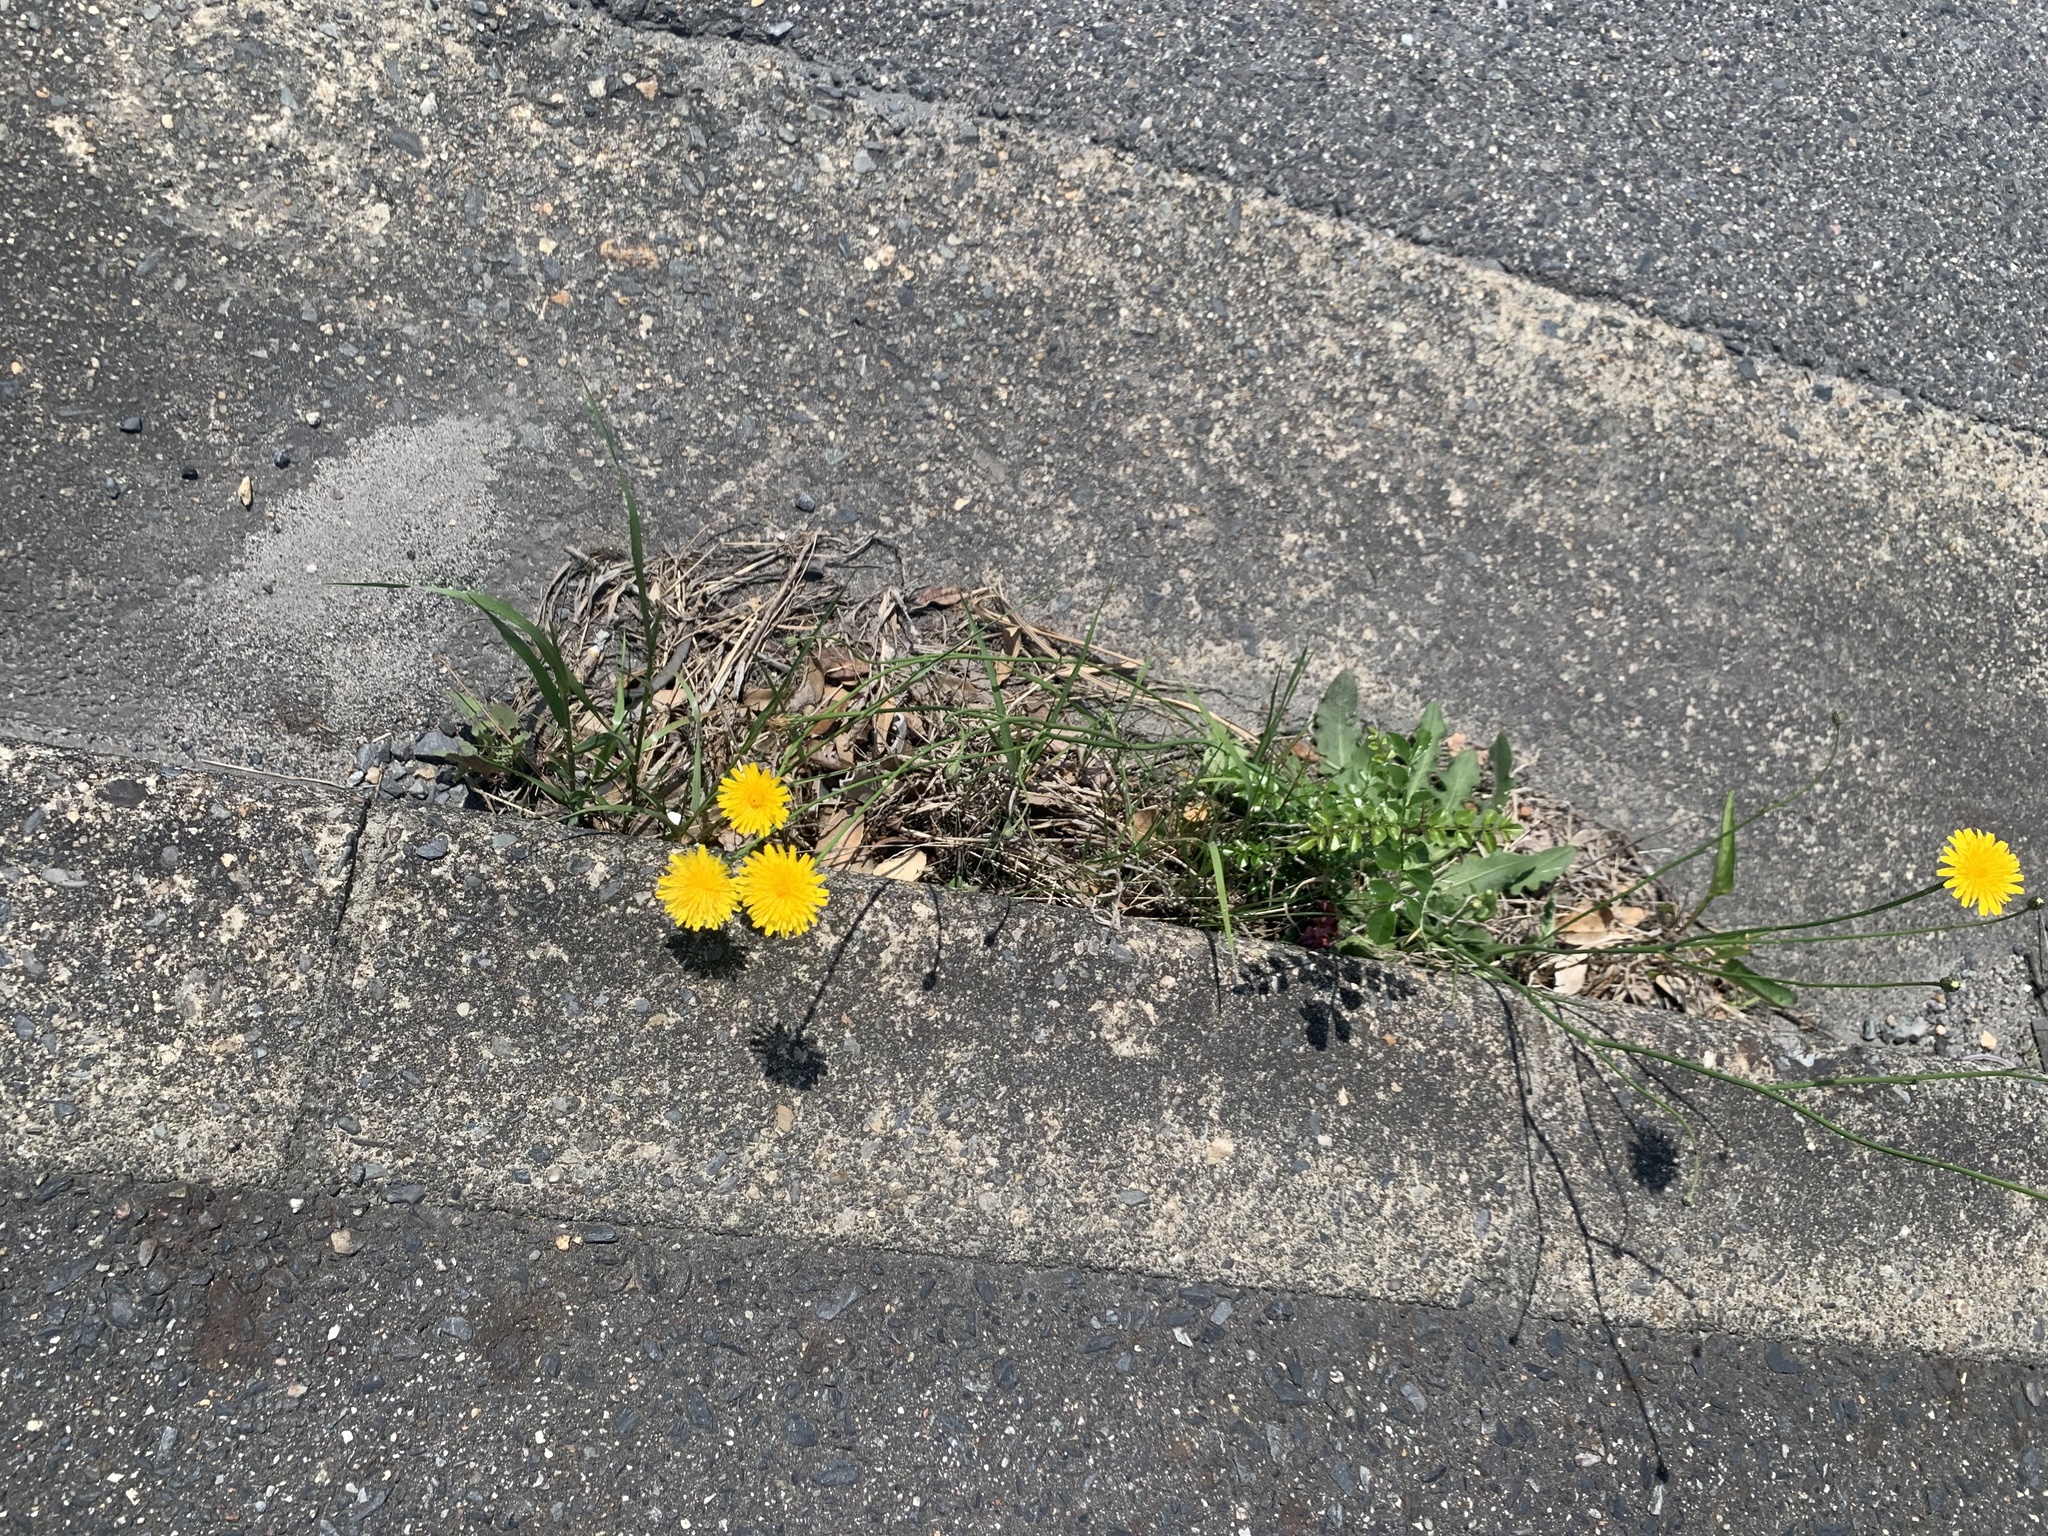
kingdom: Plantae
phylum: Tracheophyta
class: Magnoliopsida
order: Asterales
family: Asteraceae
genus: Hypochaeris
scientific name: Hypochaeris radicata
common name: Flatweed
